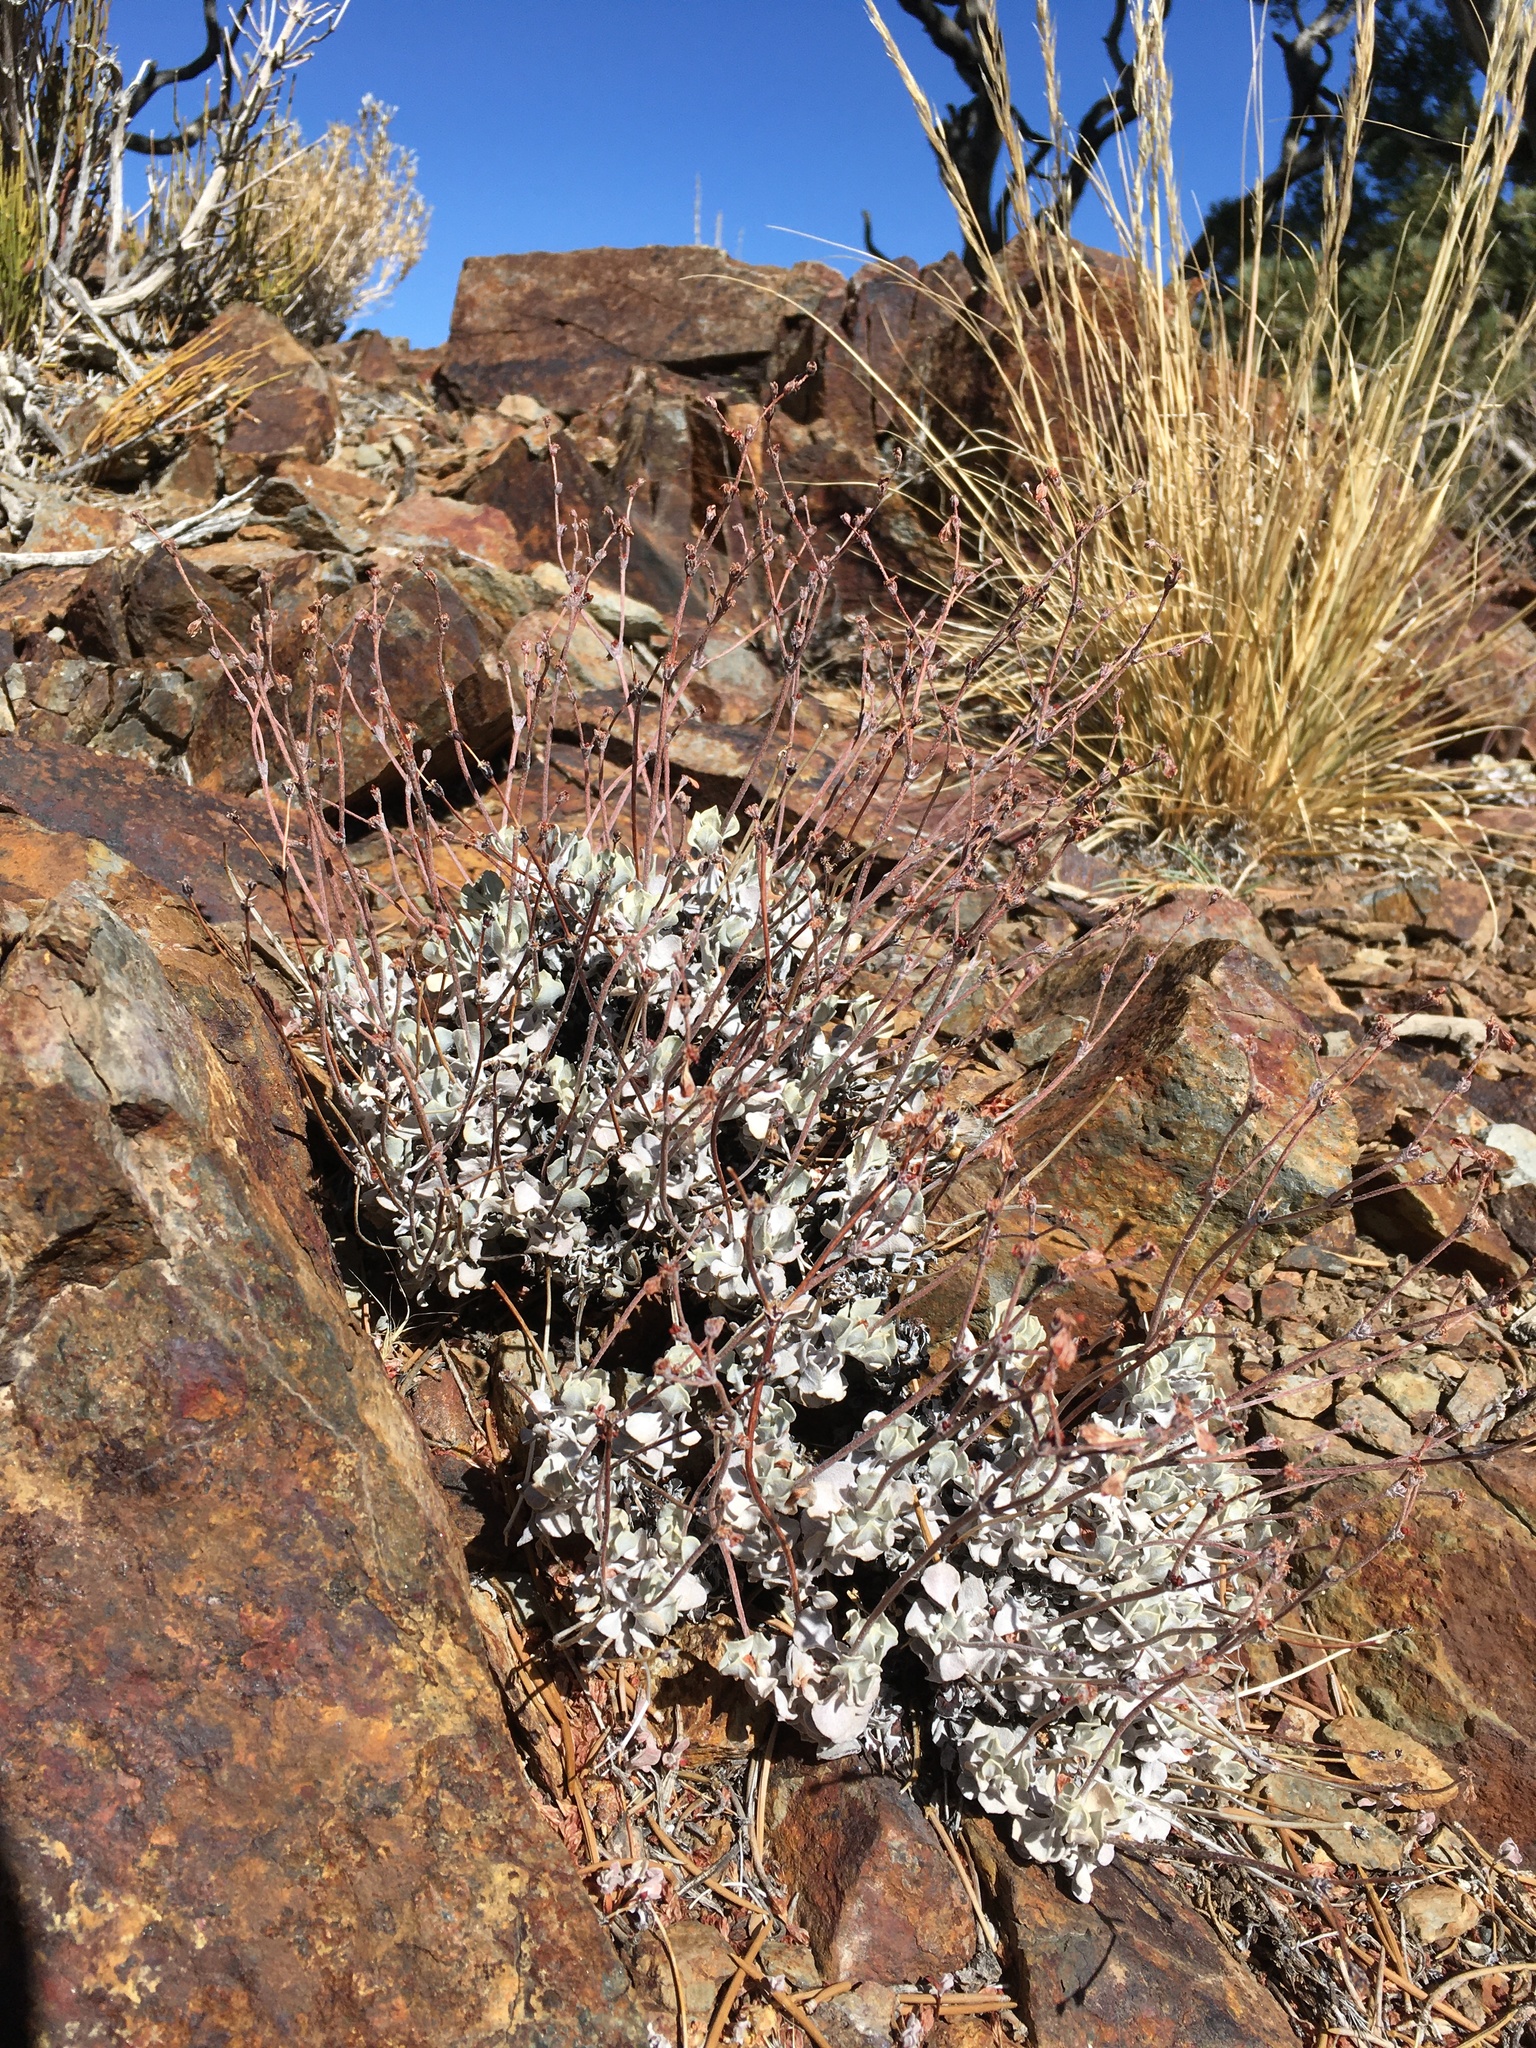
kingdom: Plantae
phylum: Tracheophyta
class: Magnoliopsida
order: Caryophyllales
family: Polygonaceae
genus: Eriogonum
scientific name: Eriogonum saxatile
